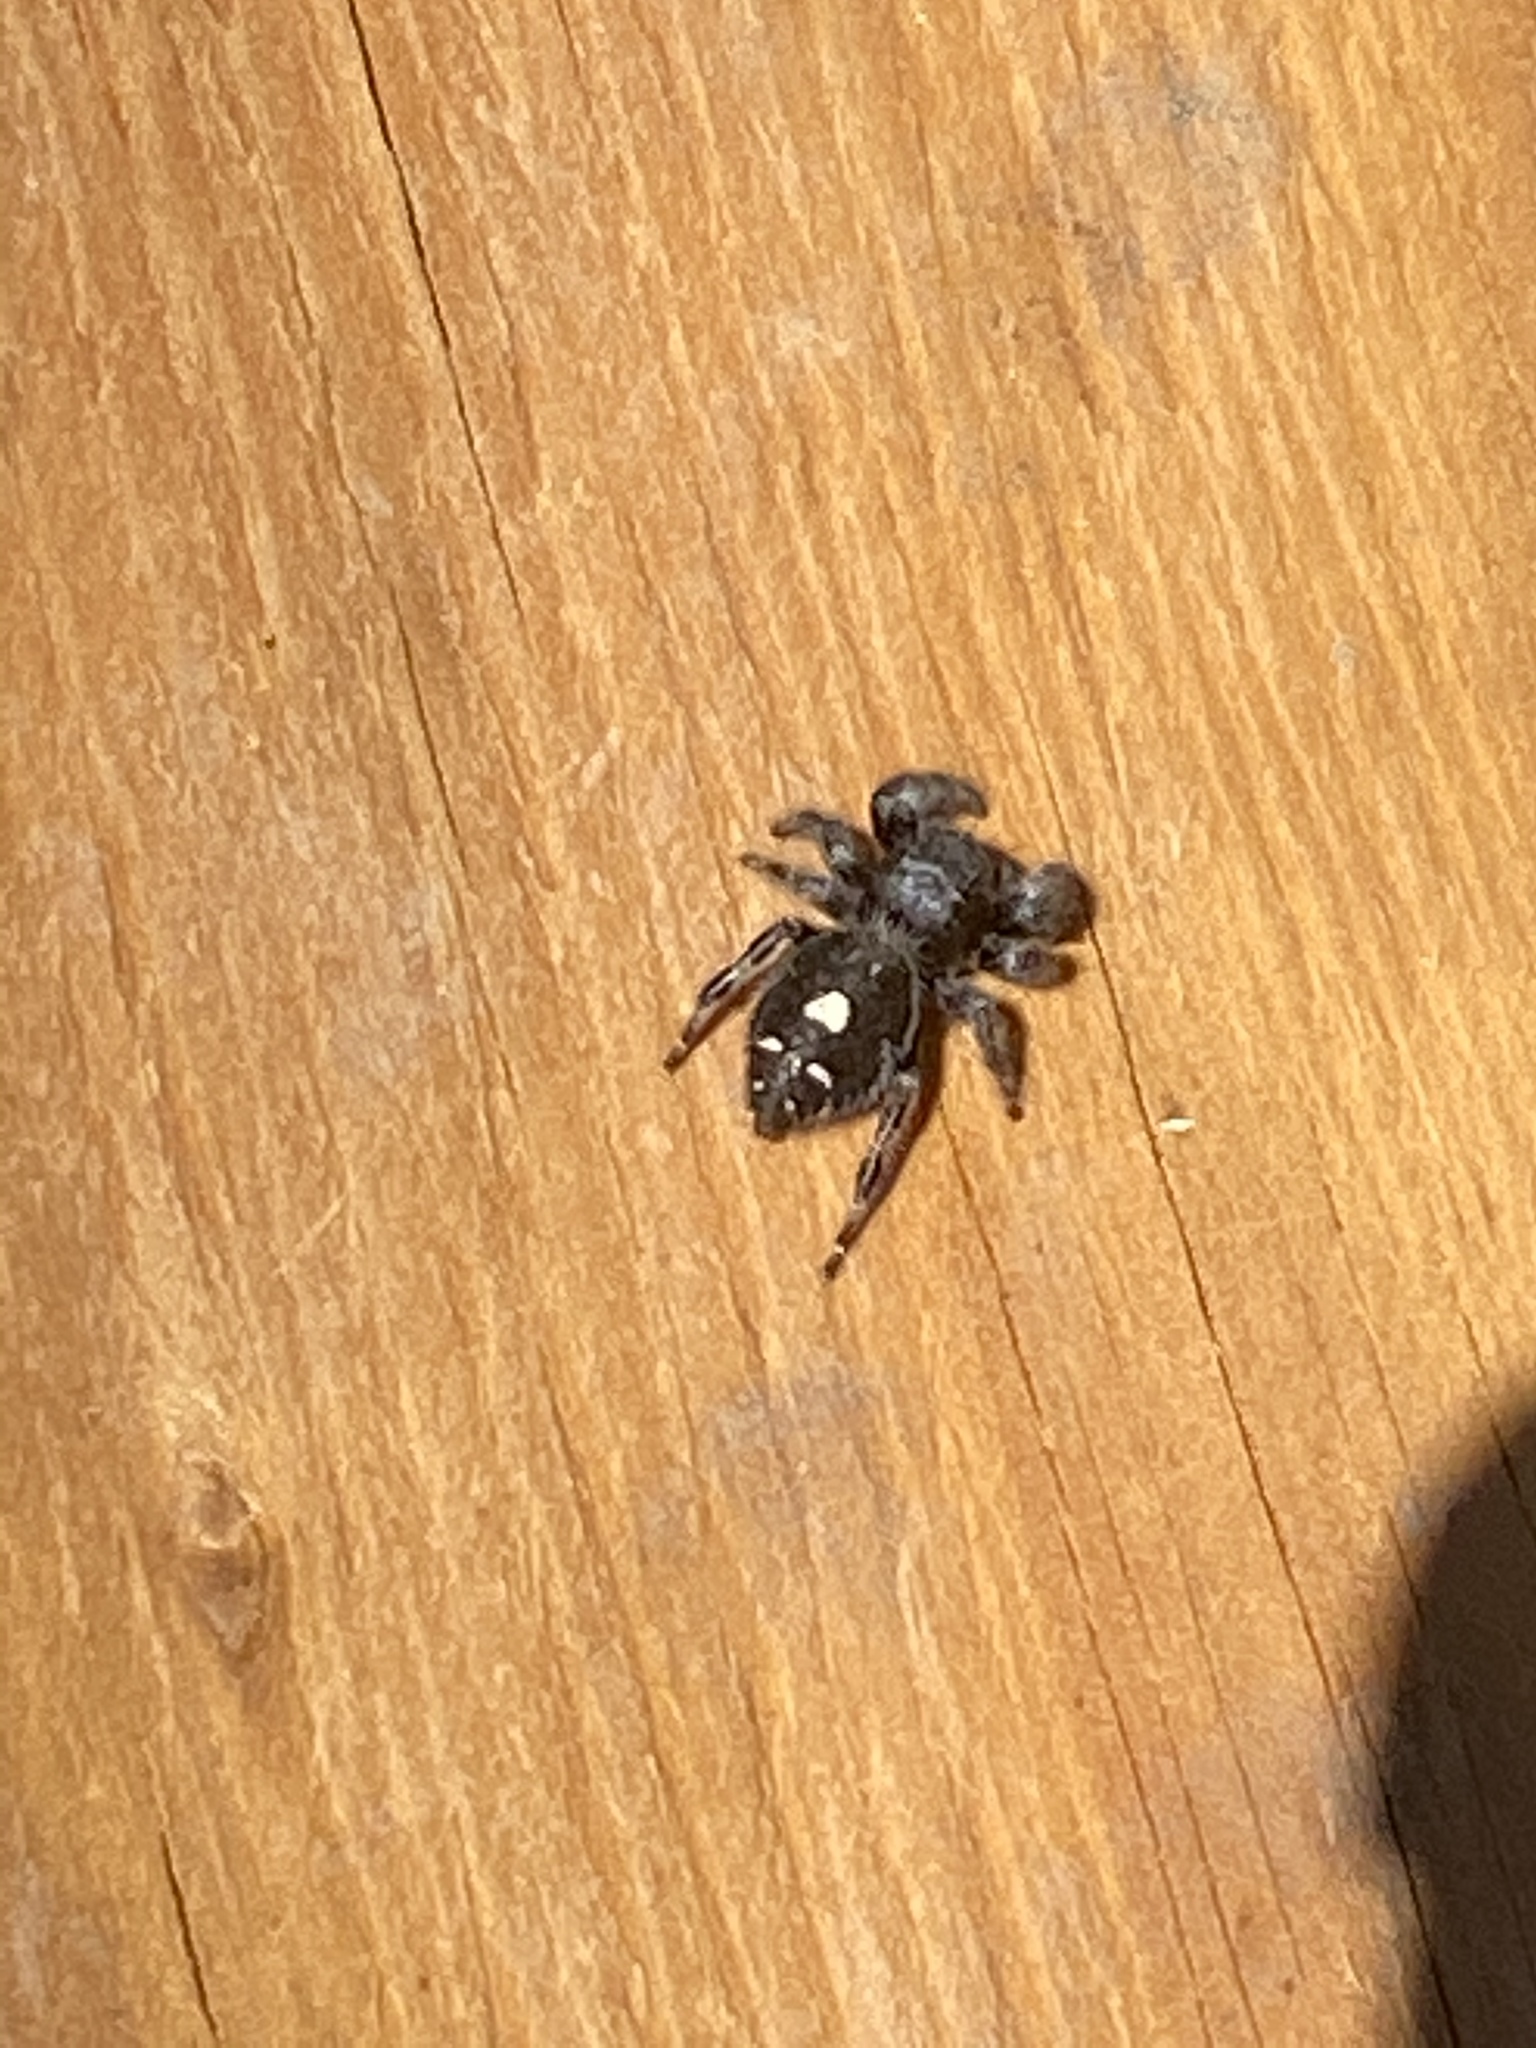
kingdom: Animalia
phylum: Arthropoda
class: Arachnida
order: Araneae
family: Salticidae
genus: Phidippus
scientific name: Phidippus audax
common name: Bold jumper
